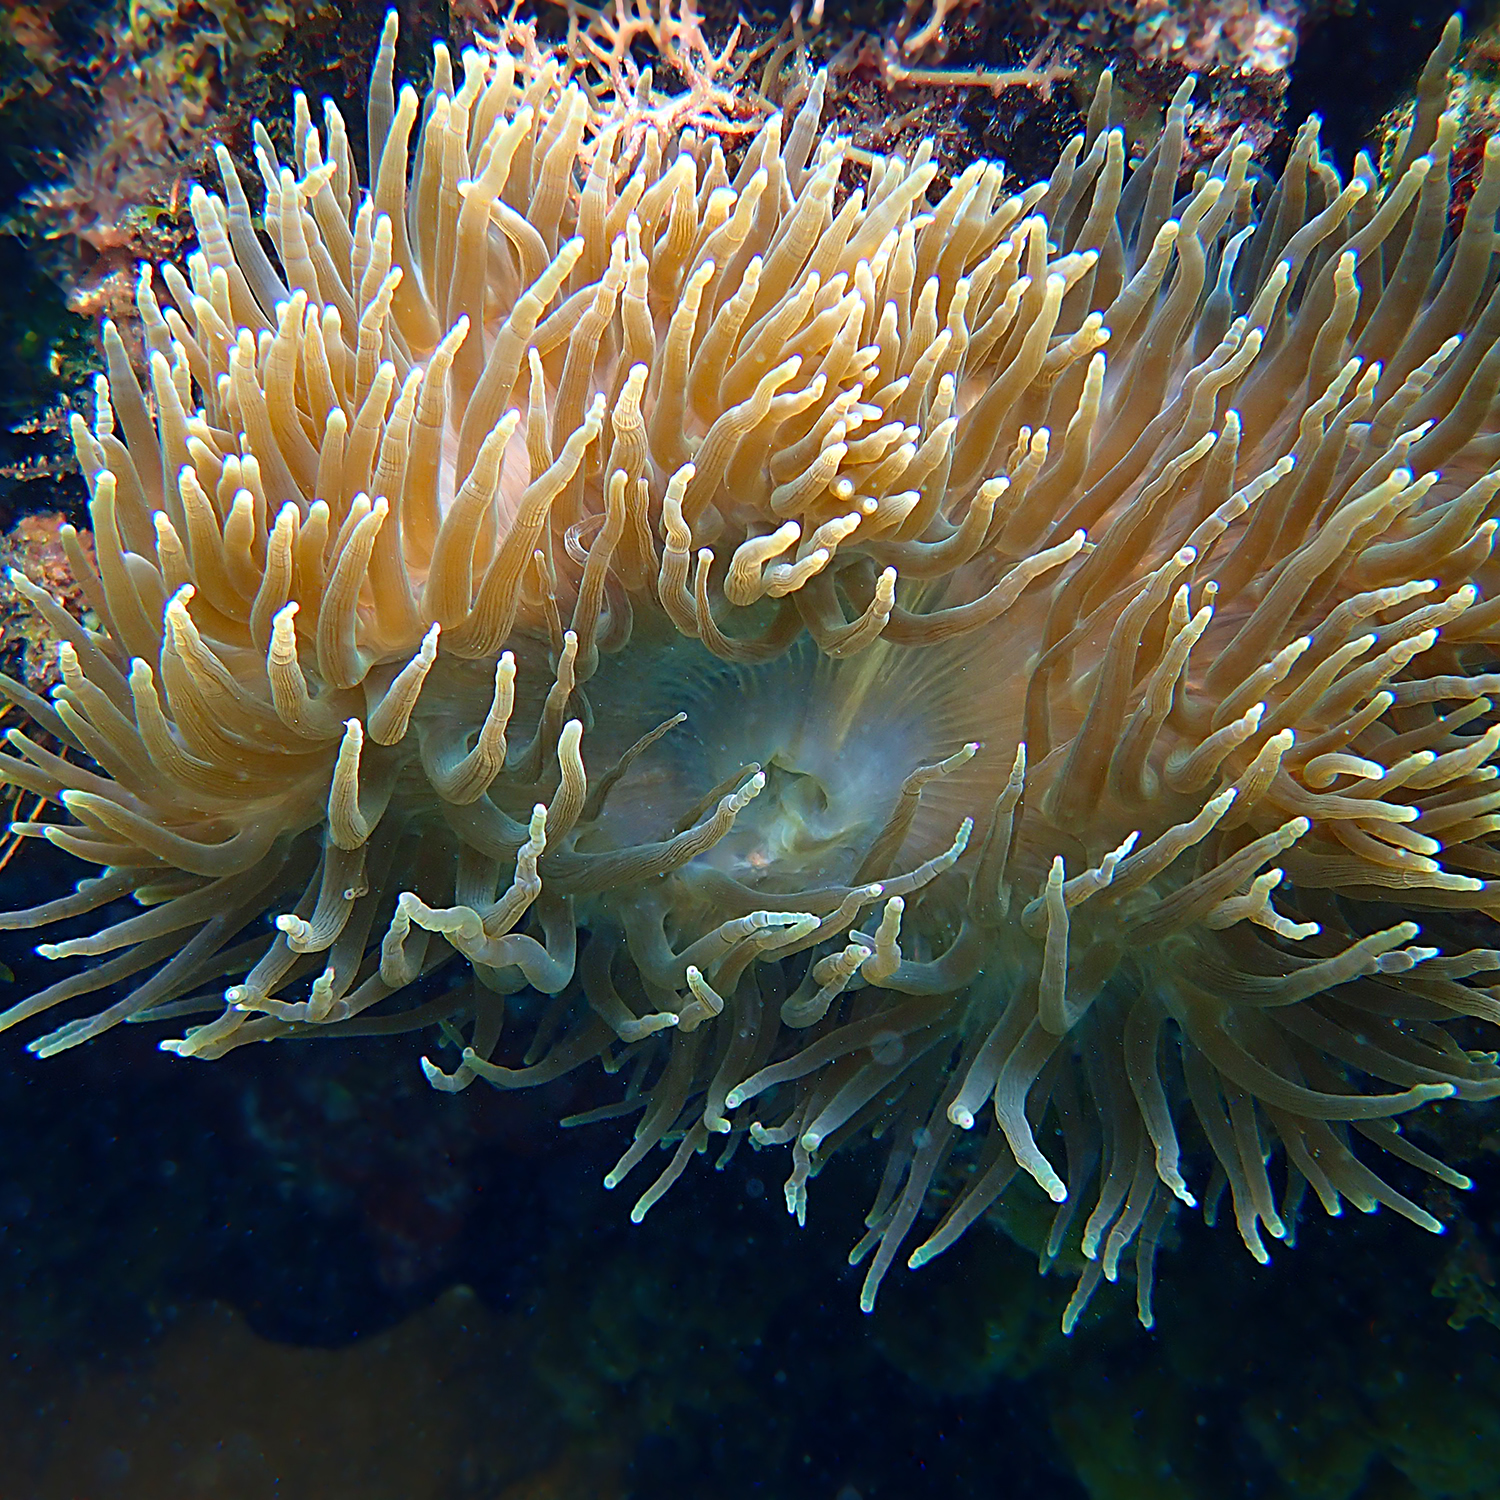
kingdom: Animalia
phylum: Cnidaria
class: Anthozoa
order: Actiniaria
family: Actiniidae
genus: Entacmaea
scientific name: Entacmaea quadricolor
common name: Bulb tentacle sea anemone
